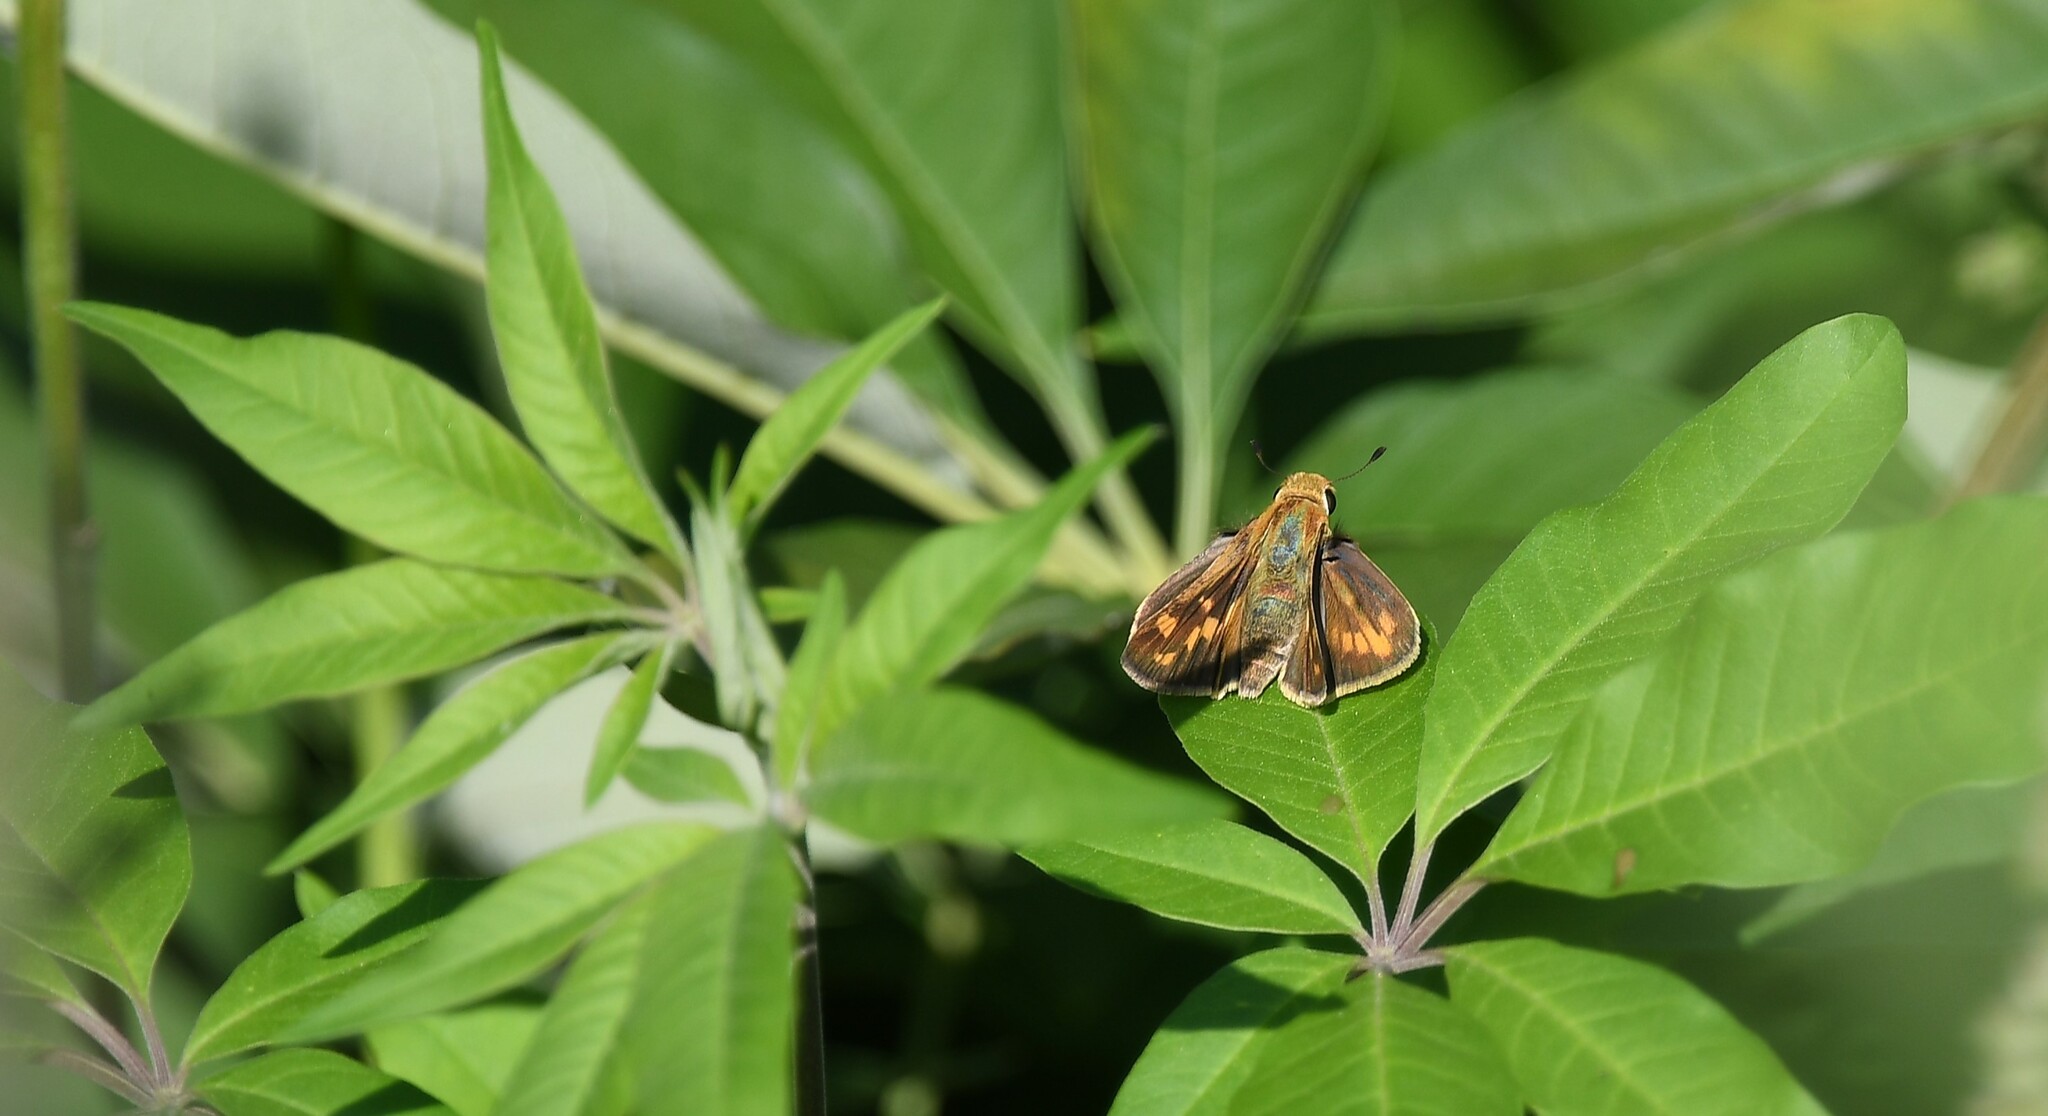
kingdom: Animalia
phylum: Arthropoda
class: Insecta
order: Lepidoptera
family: Hesperiidae
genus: Hylephila
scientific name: Hylephila phyleus
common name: Fiery skipper
